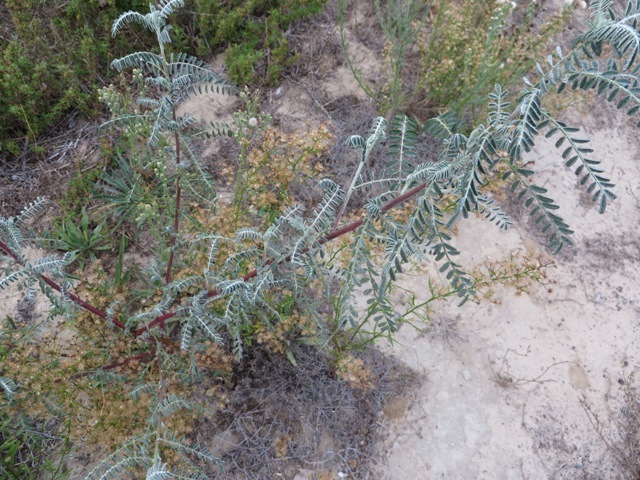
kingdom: Plantae
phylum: Tracheophyta
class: Magnoliopsida
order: Fabales
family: Fabaceae
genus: Lessertia
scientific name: Lessertia frutescens
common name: Balloon-pea
